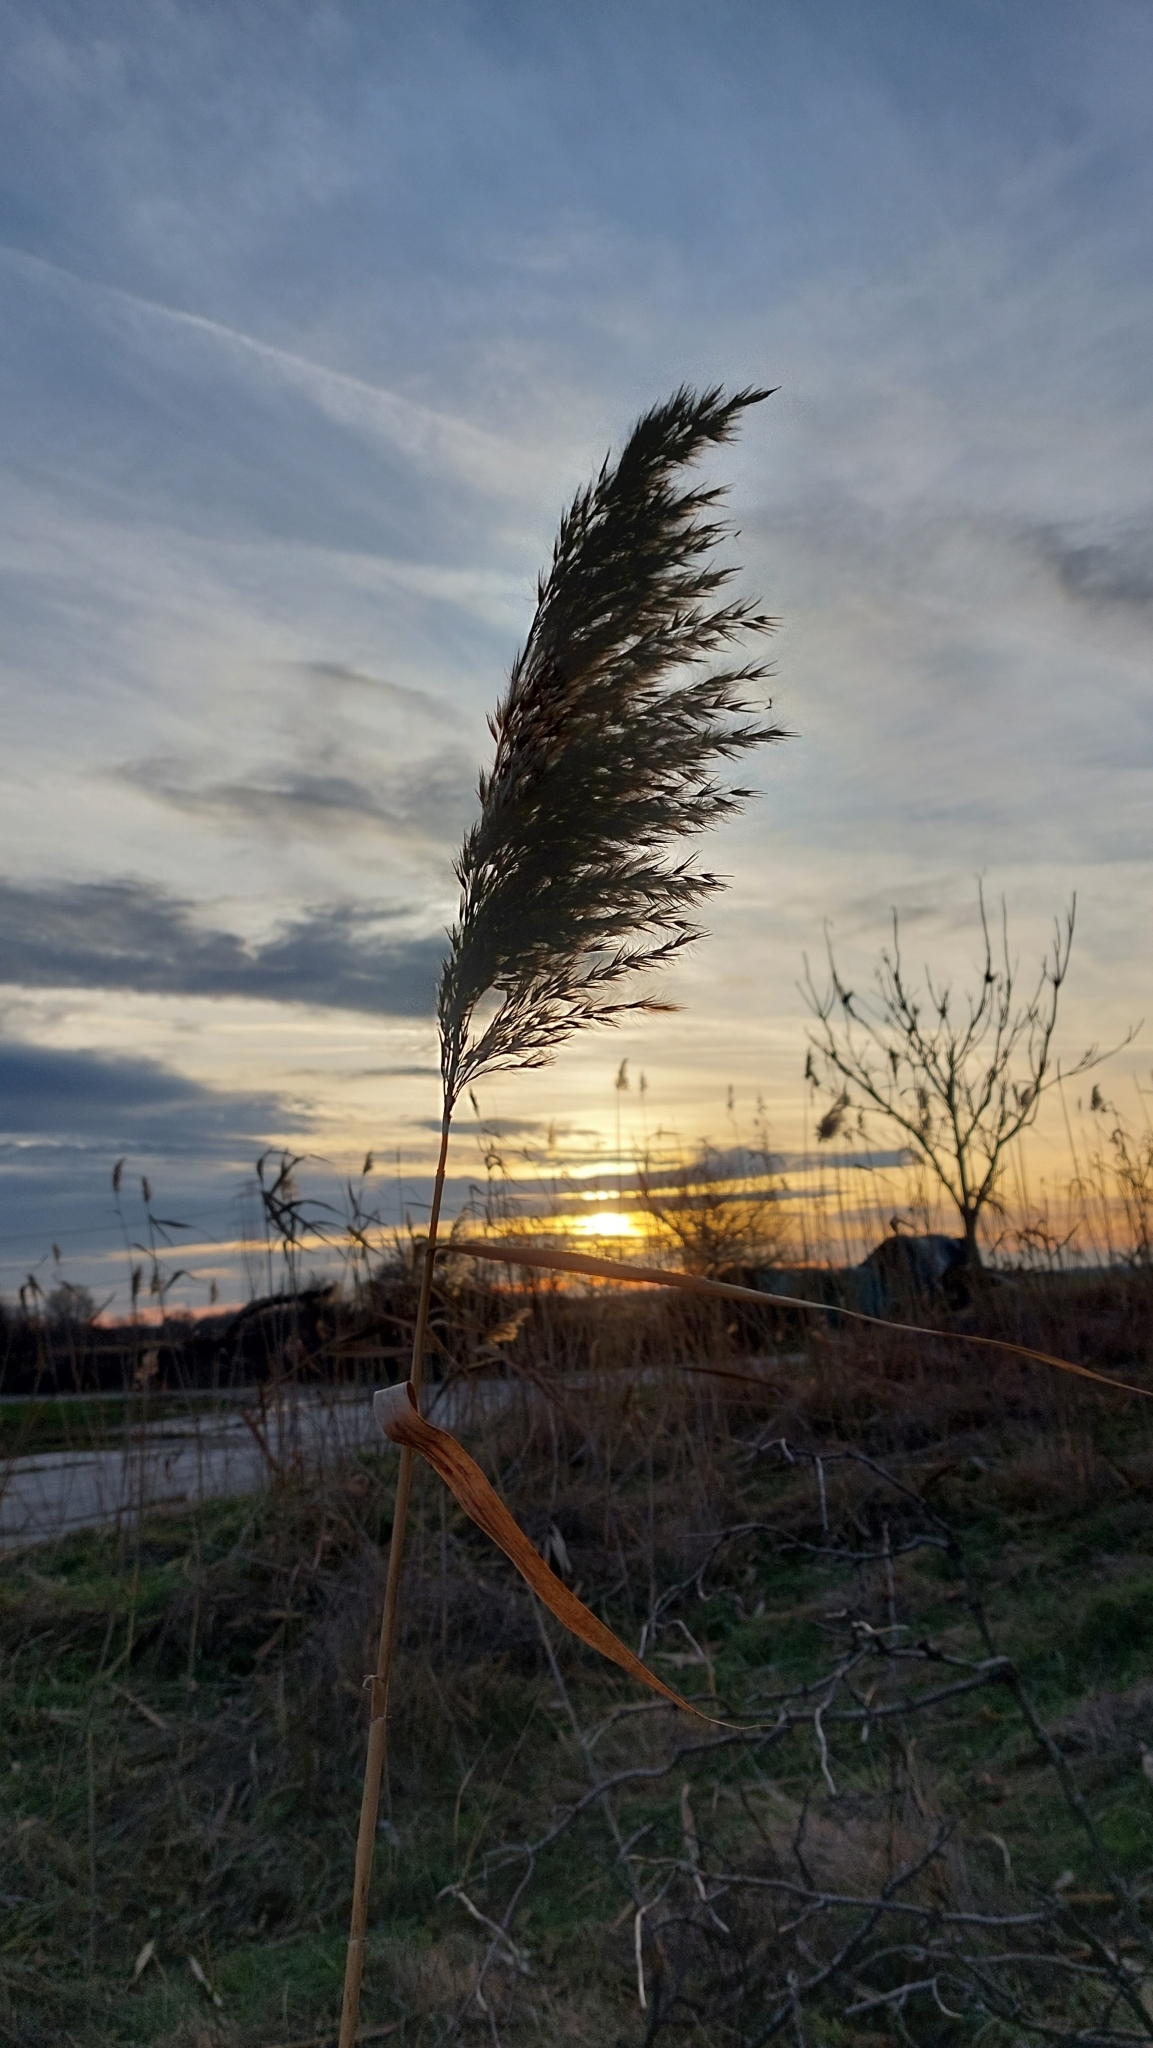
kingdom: Plantae
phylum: Tracheophyta
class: Liliopsida
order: Poales
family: Poaceae
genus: Phragmites
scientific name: Phragmites australis
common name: Common reed
